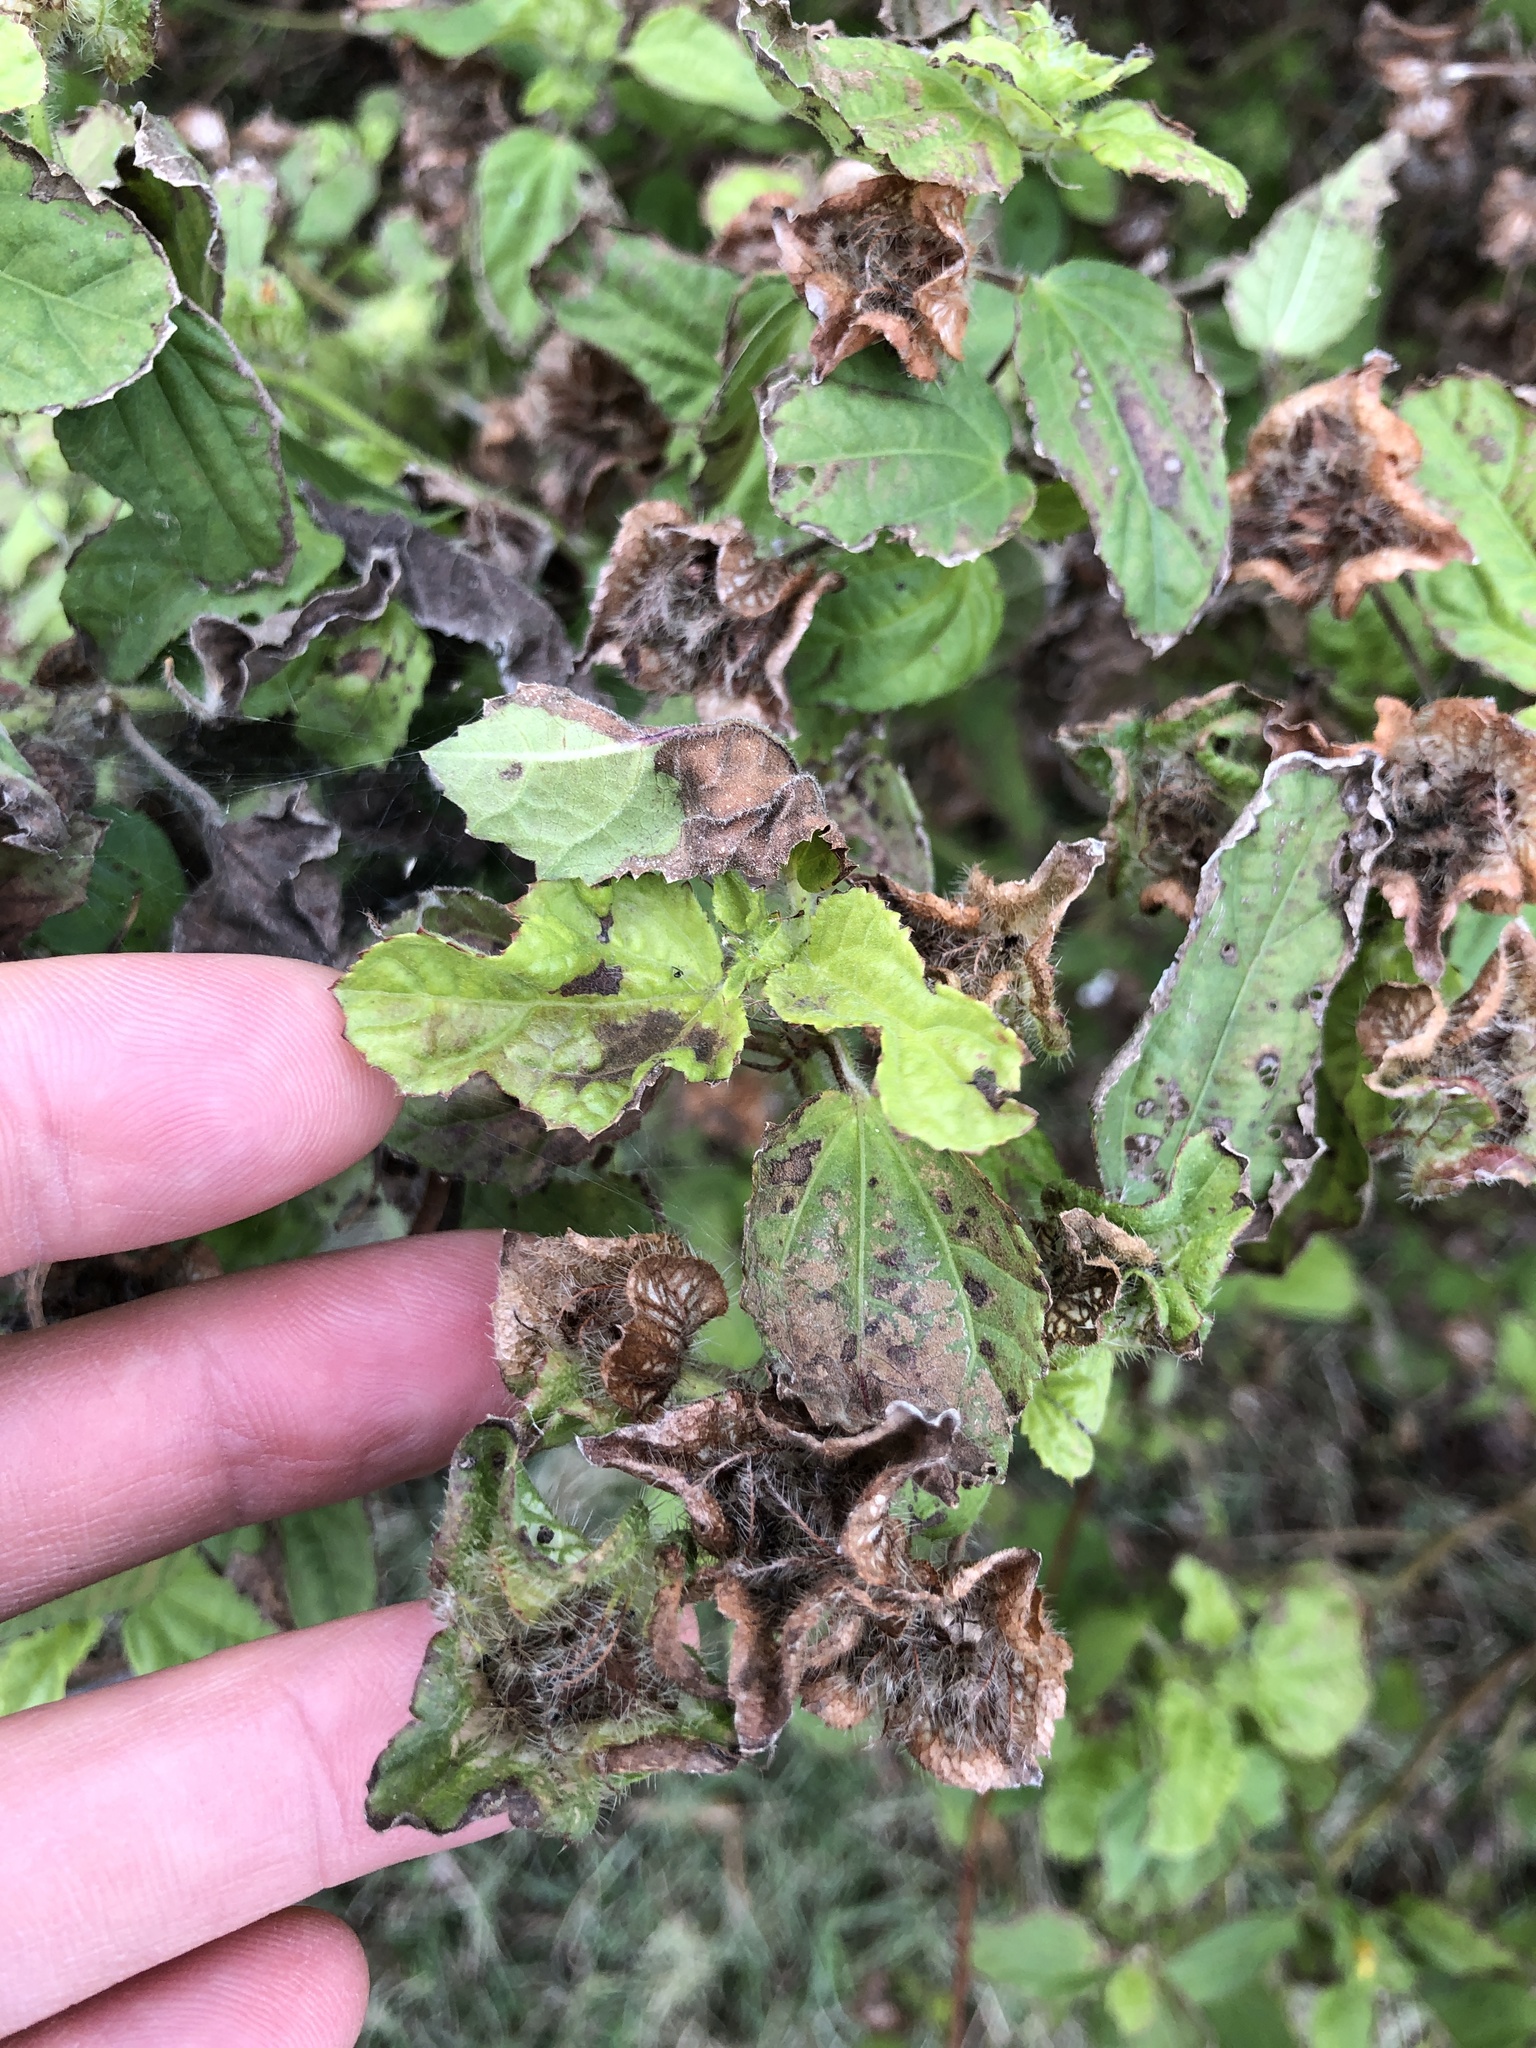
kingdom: Plantae
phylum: Tracheophyta
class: Magnoliopsida
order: Malvales
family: Malvaceae
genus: Malachra
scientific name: Malachra capitata
